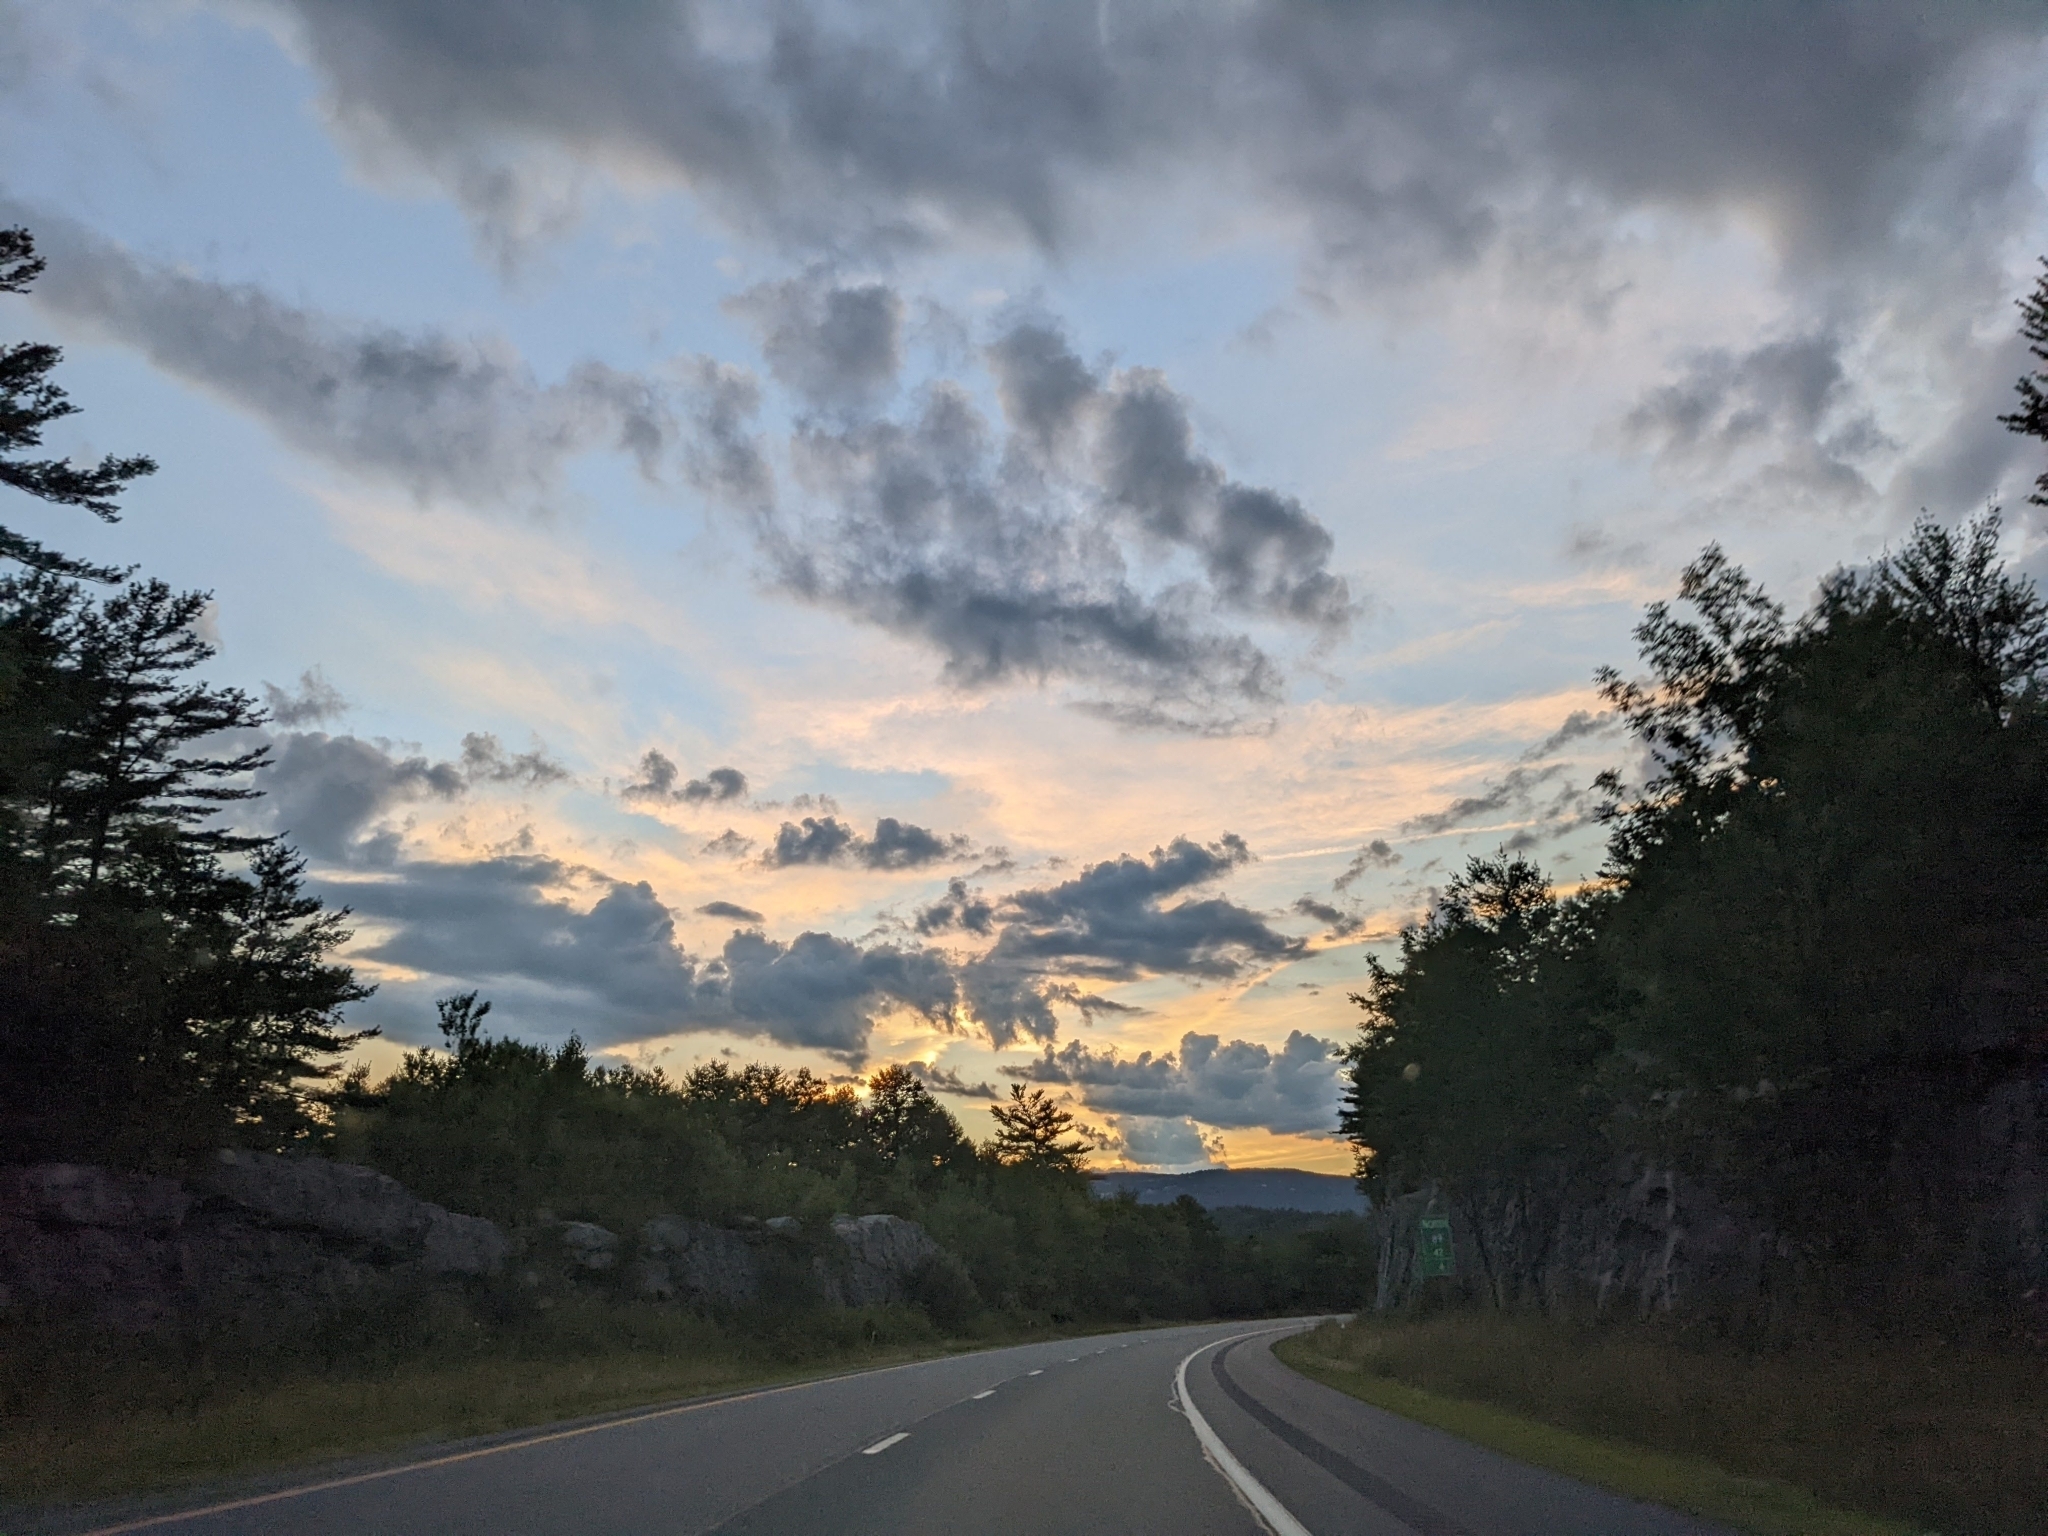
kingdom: Plantae
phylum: Tracheophyta
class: Pinopsida
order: Pinales
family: Pinaceae
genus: Pinus
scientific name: Pinus strobus
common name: Weymouth pine
